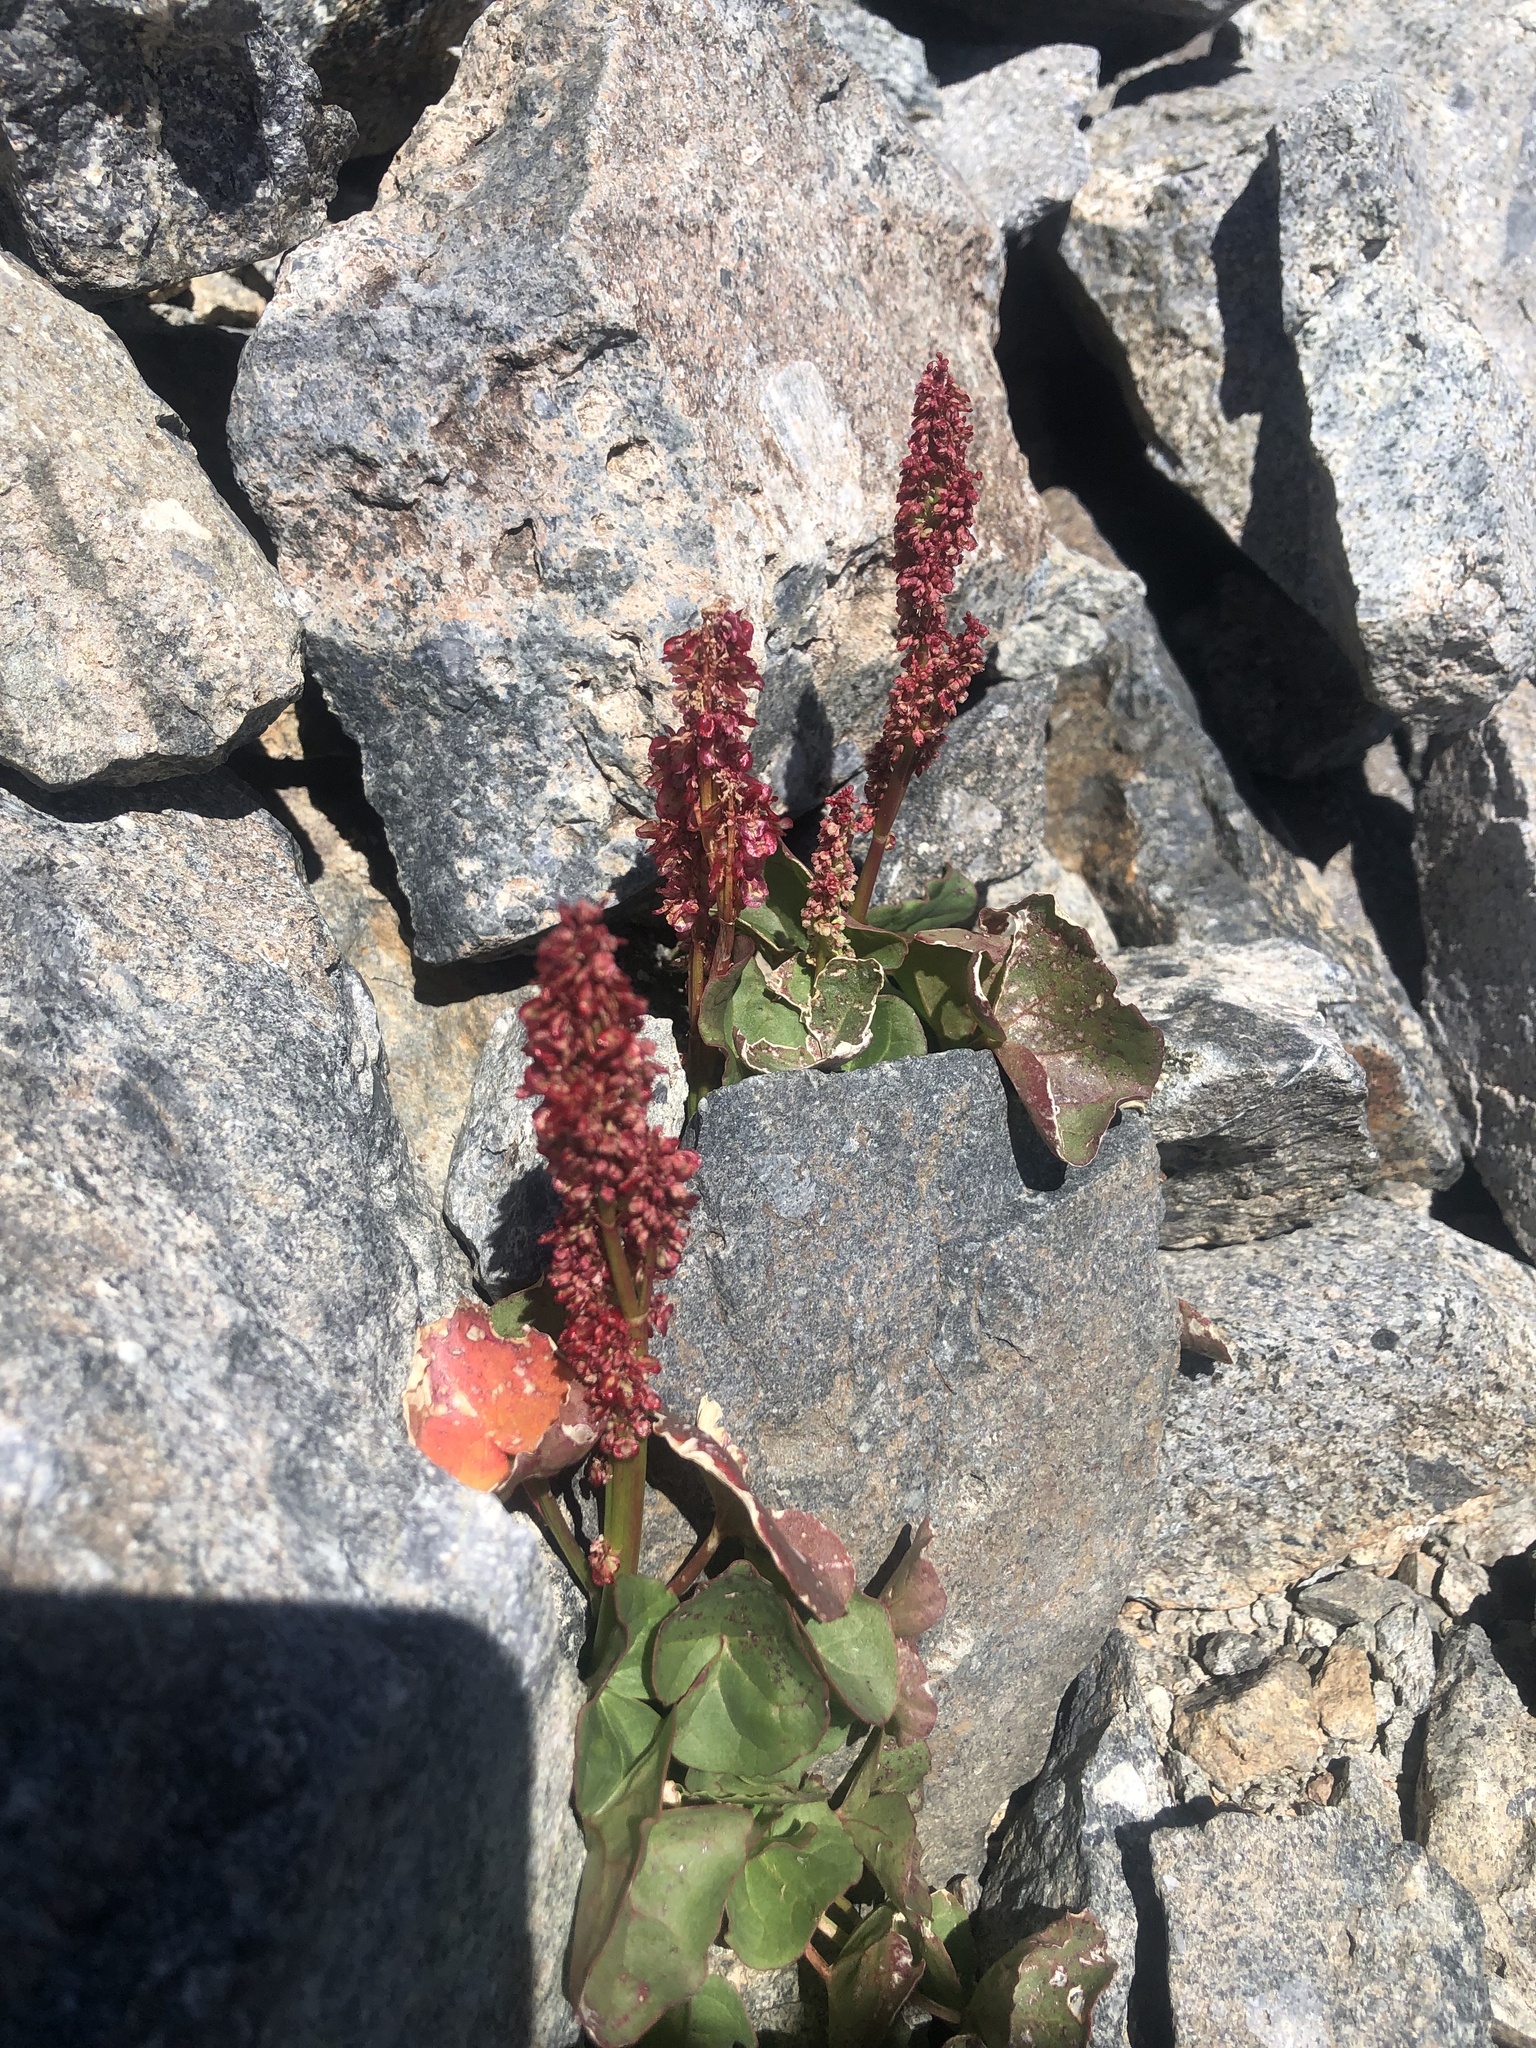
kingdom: Plantae
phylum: Tracheophyta
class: Magnoliopsida
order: Caryophyllales
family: Polygonaceae
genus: Oxyria
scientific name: Oxyria digyna
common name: Alpine mountain-sorrel
